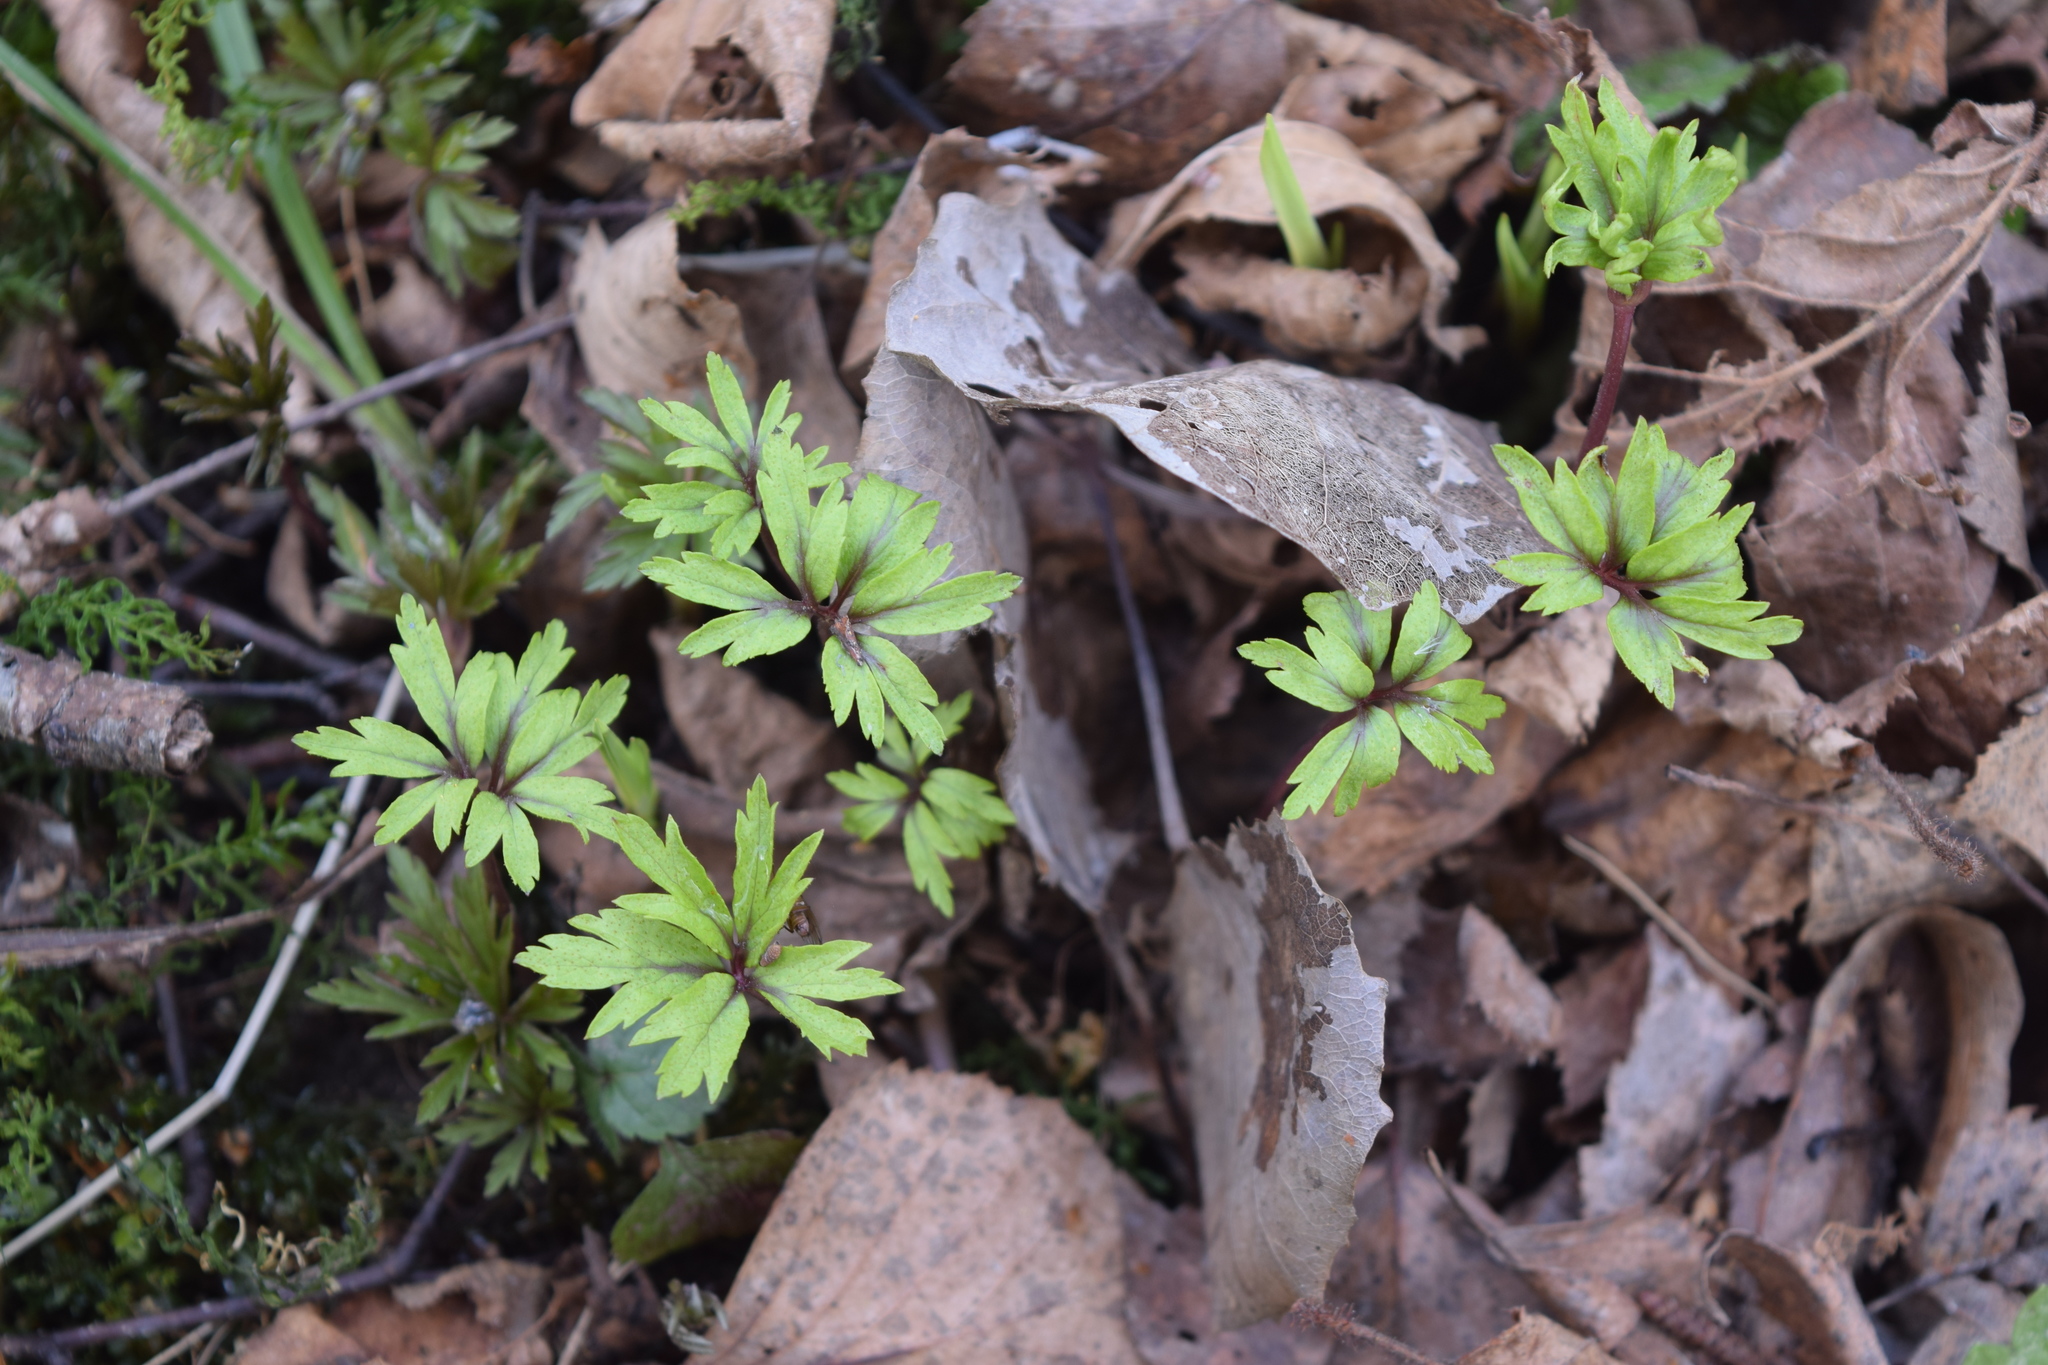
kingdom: Plantae
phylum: Tracheophyta
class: Magnoliopsida
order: Ranunculales
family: Ranunculaceae
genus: Anemone
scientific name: Anemone ranunculoides
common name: Yellow anemone
